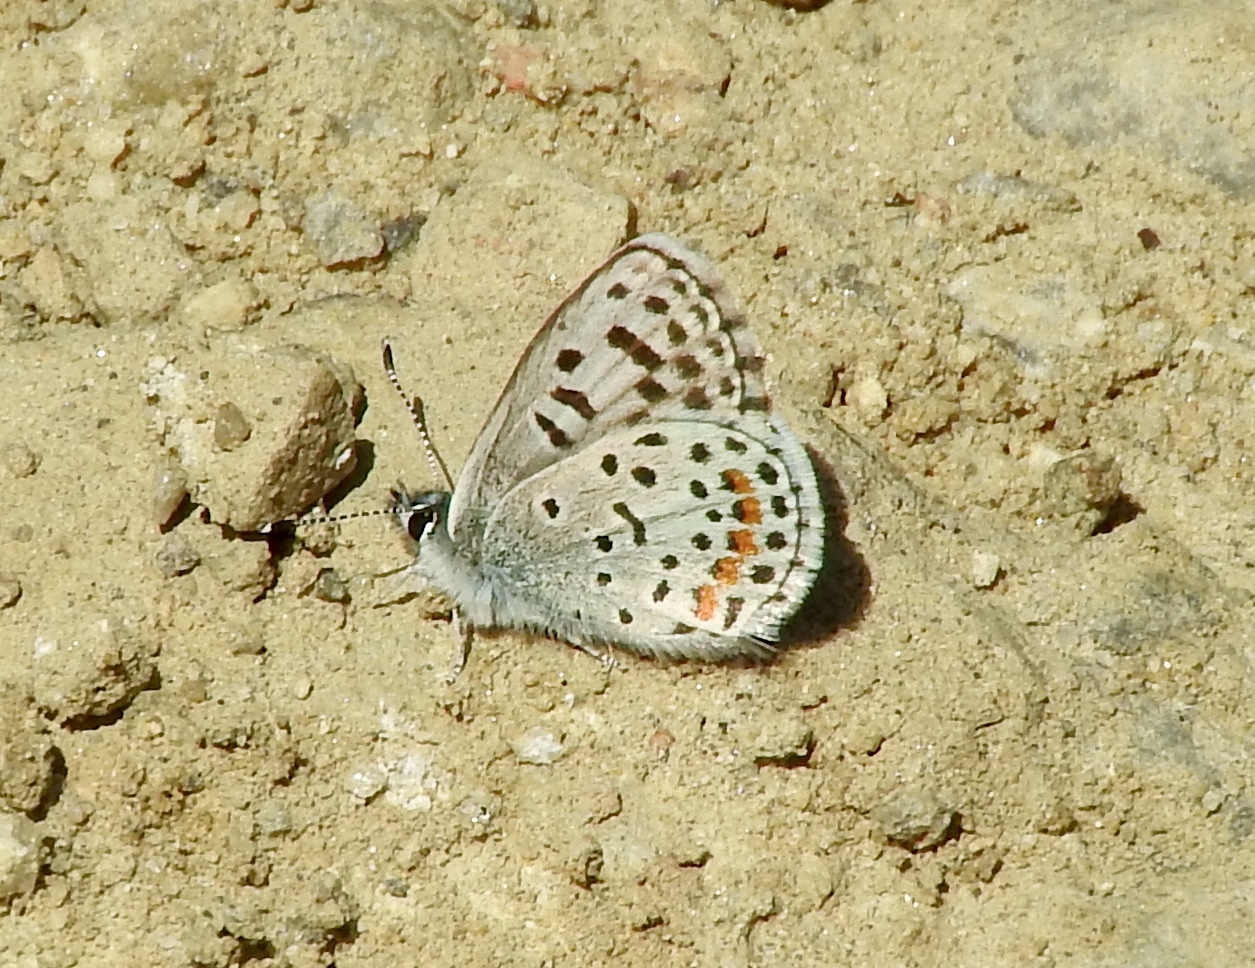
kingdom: Animalia
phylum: Arthropoda
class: Insecta
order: Lepidoptera
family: Lycaenidae
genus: Euphilotes
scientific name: Euphilotes enoptes
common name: Dotted blue
